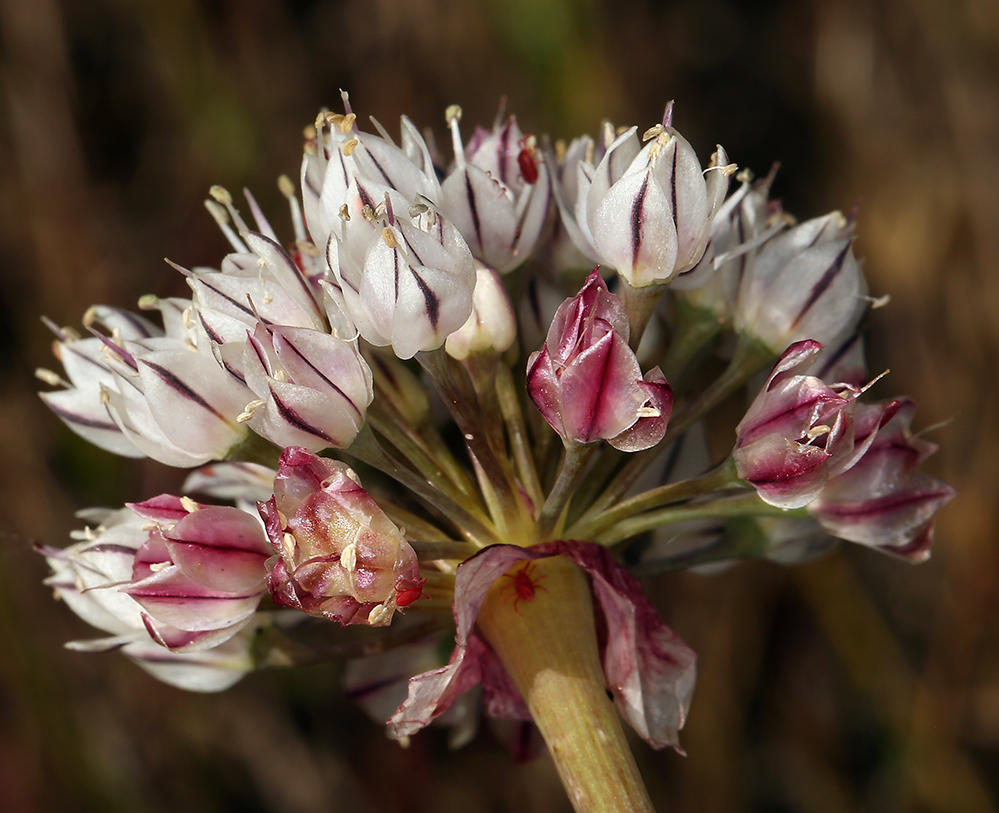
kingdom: Plantae
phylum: Tracheophyta
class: Liliopsida
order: Asparagales
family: Amaryllidaceae
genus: Allium
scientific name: Allium haematochiton
